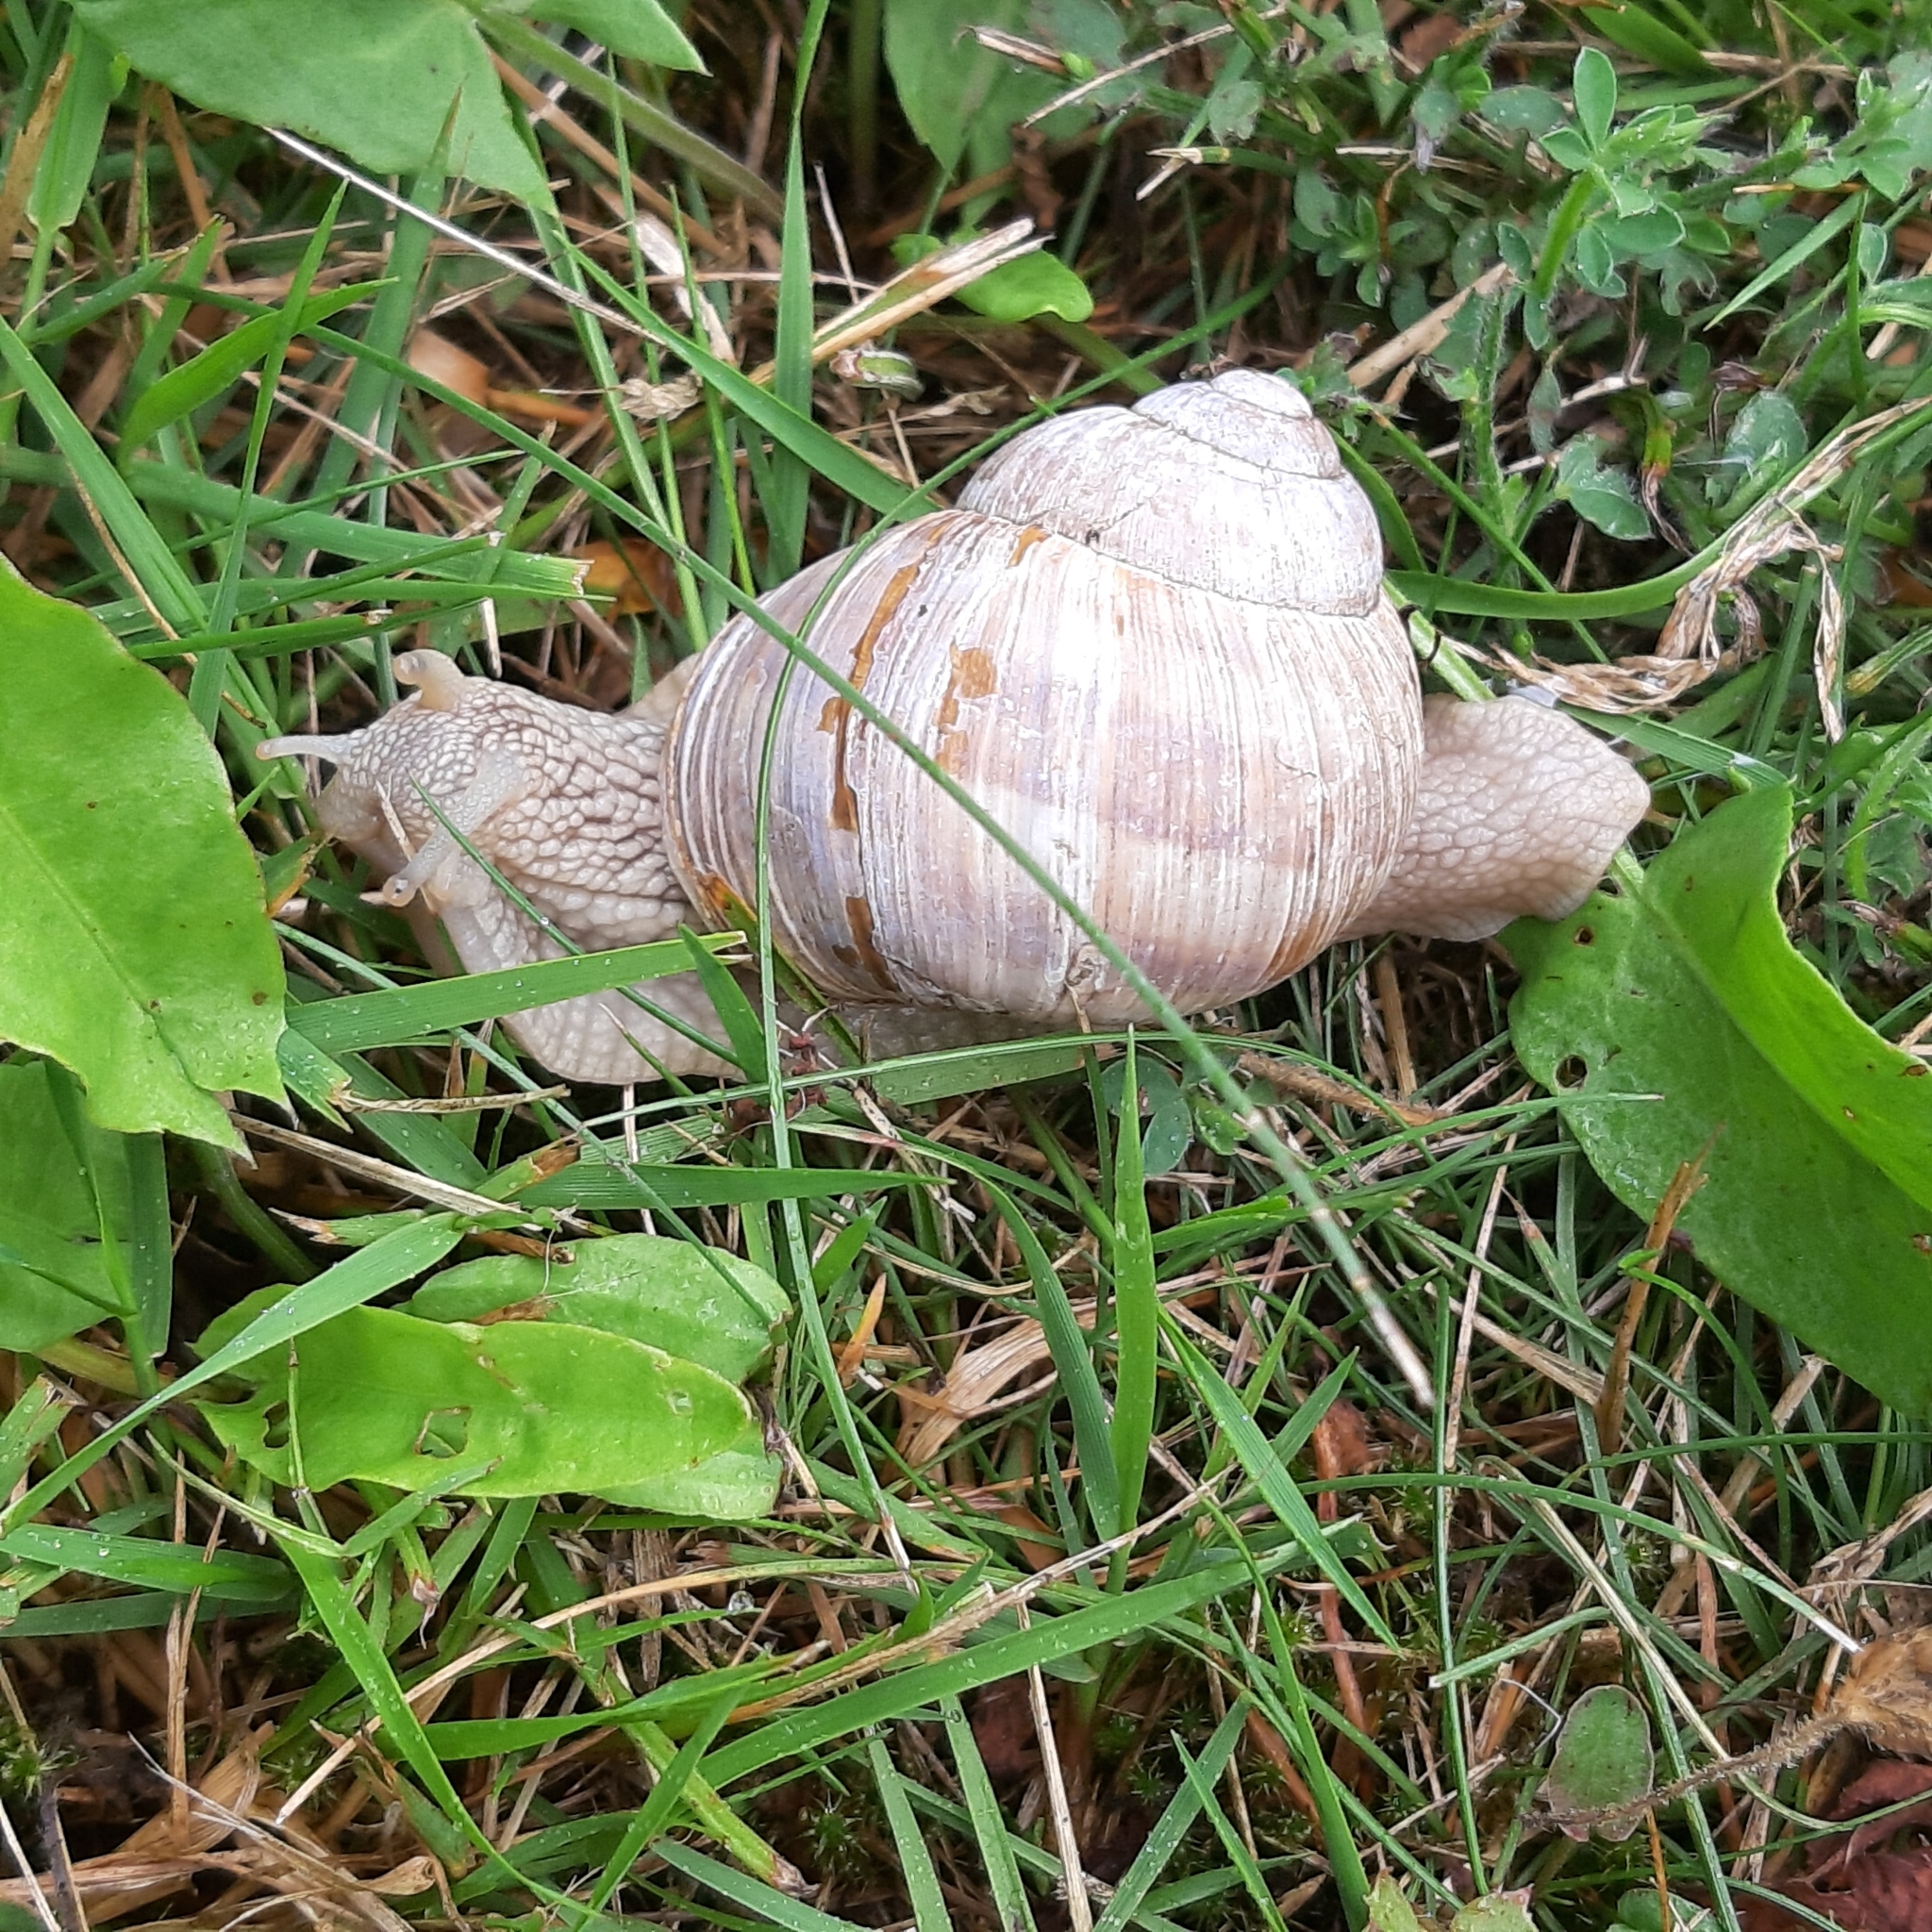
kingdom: Animalia
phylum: Mollusca
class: Gastropoda
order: Stylommatophora
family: Helicidae
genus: Helix
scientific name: Helix pomatia
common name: Roman snail
